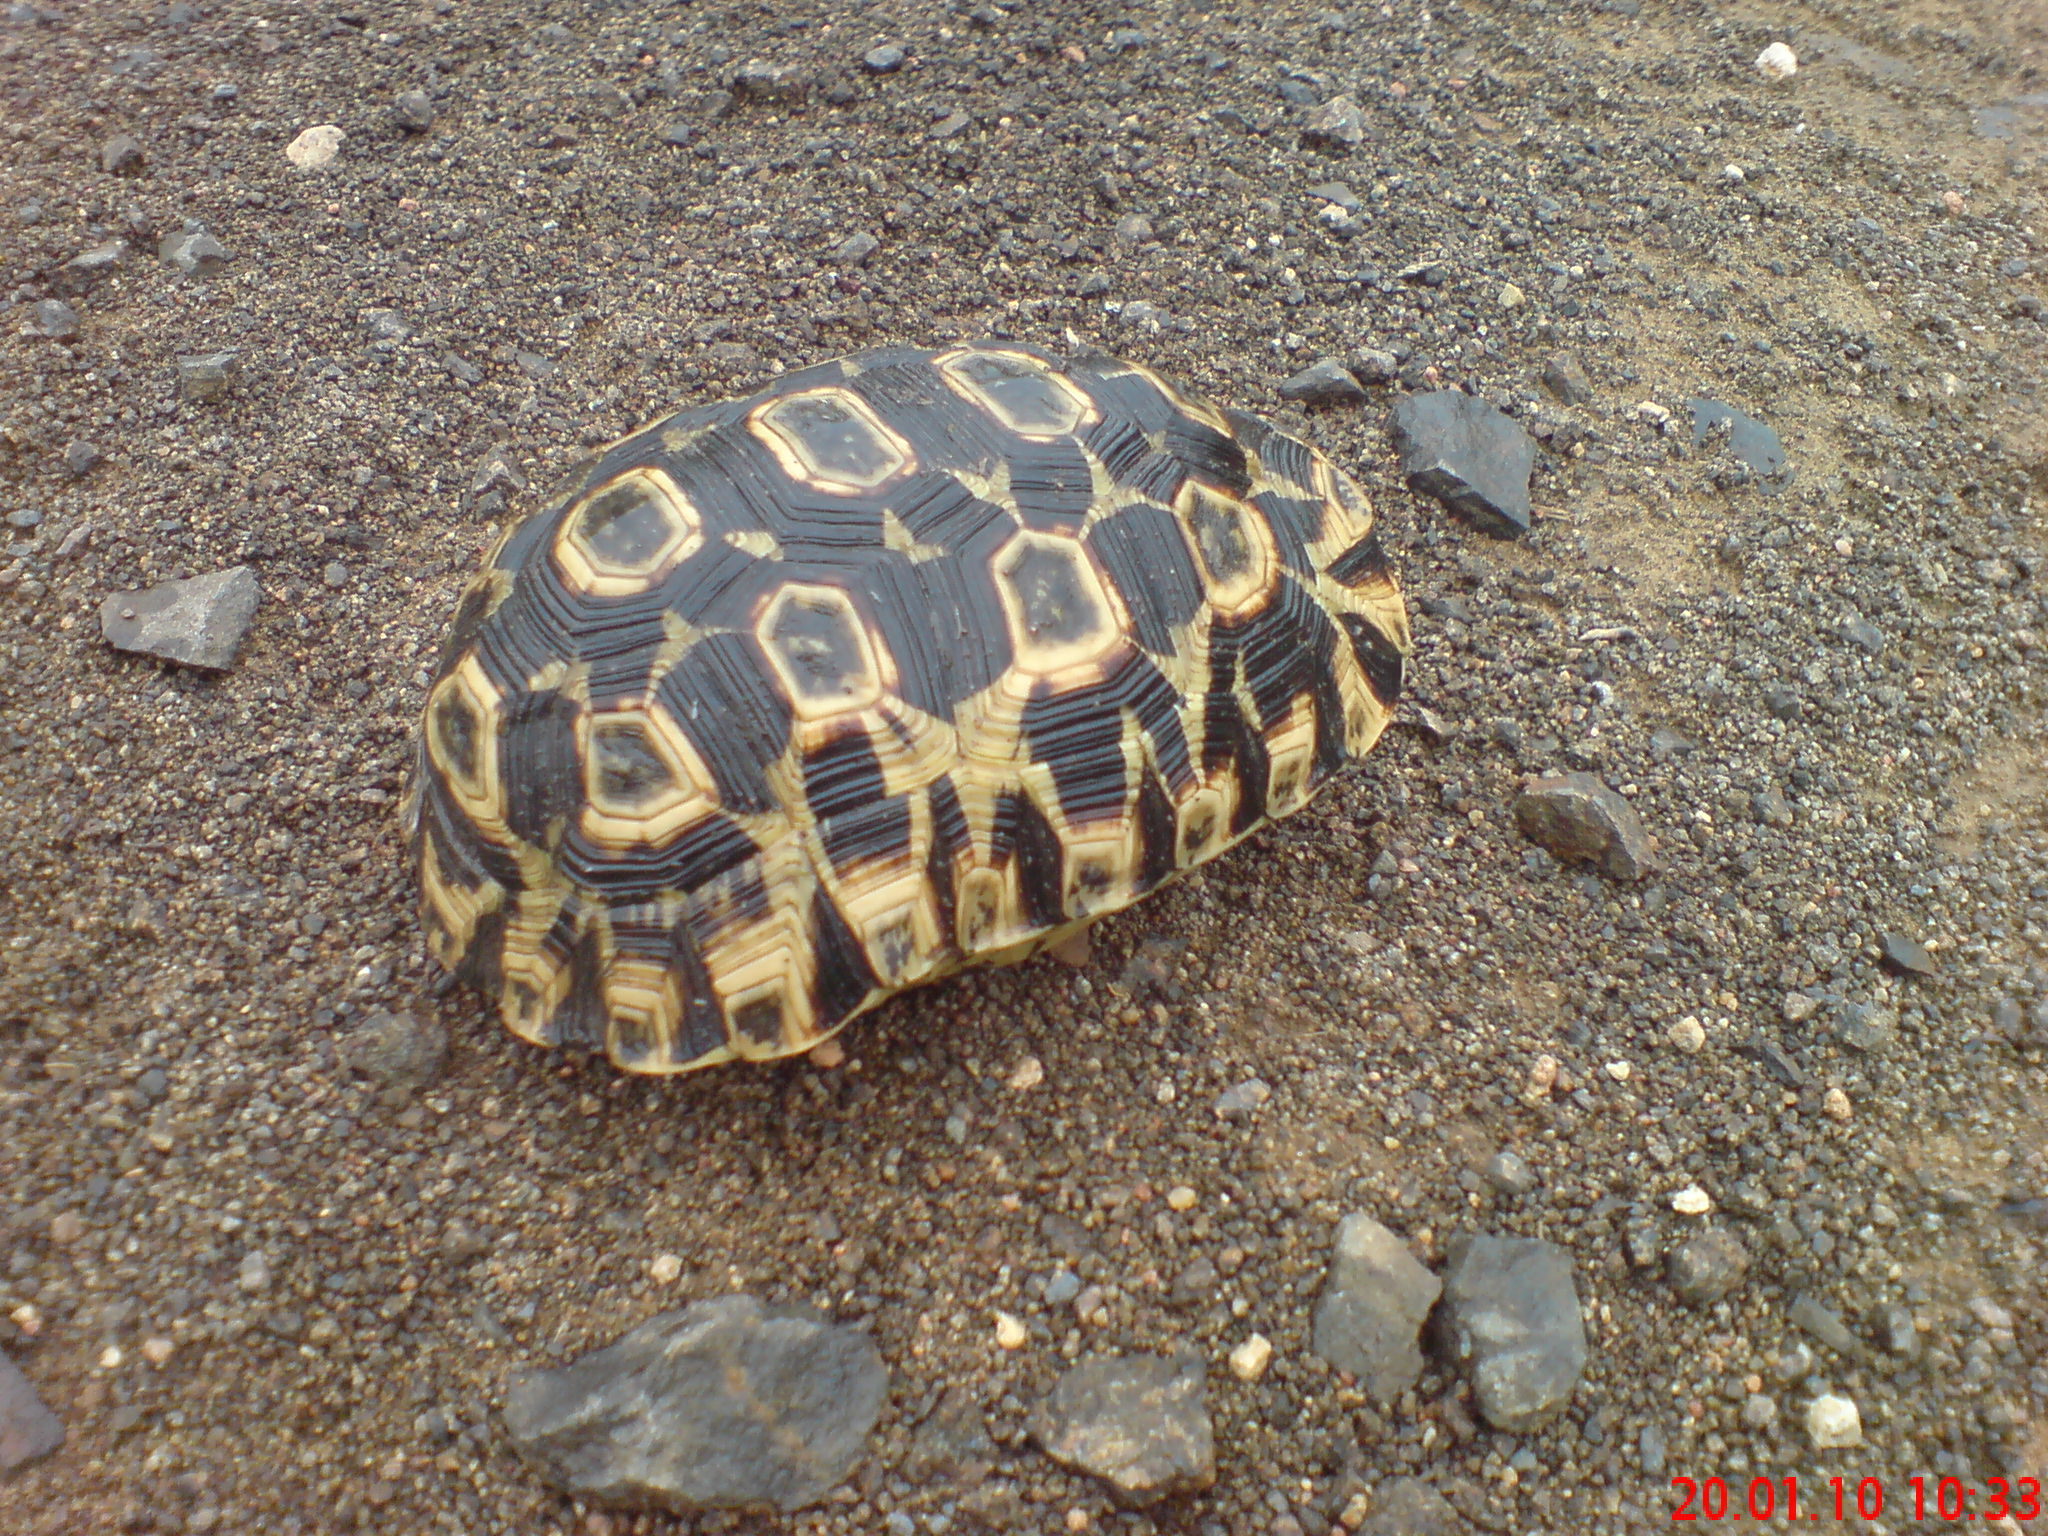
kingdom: Animalia
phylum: Chordata
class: Testudines
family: Testudinidae
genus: Kinixys
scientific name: Kinixys zombensis
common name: Southeastern hinge-back tortoise
